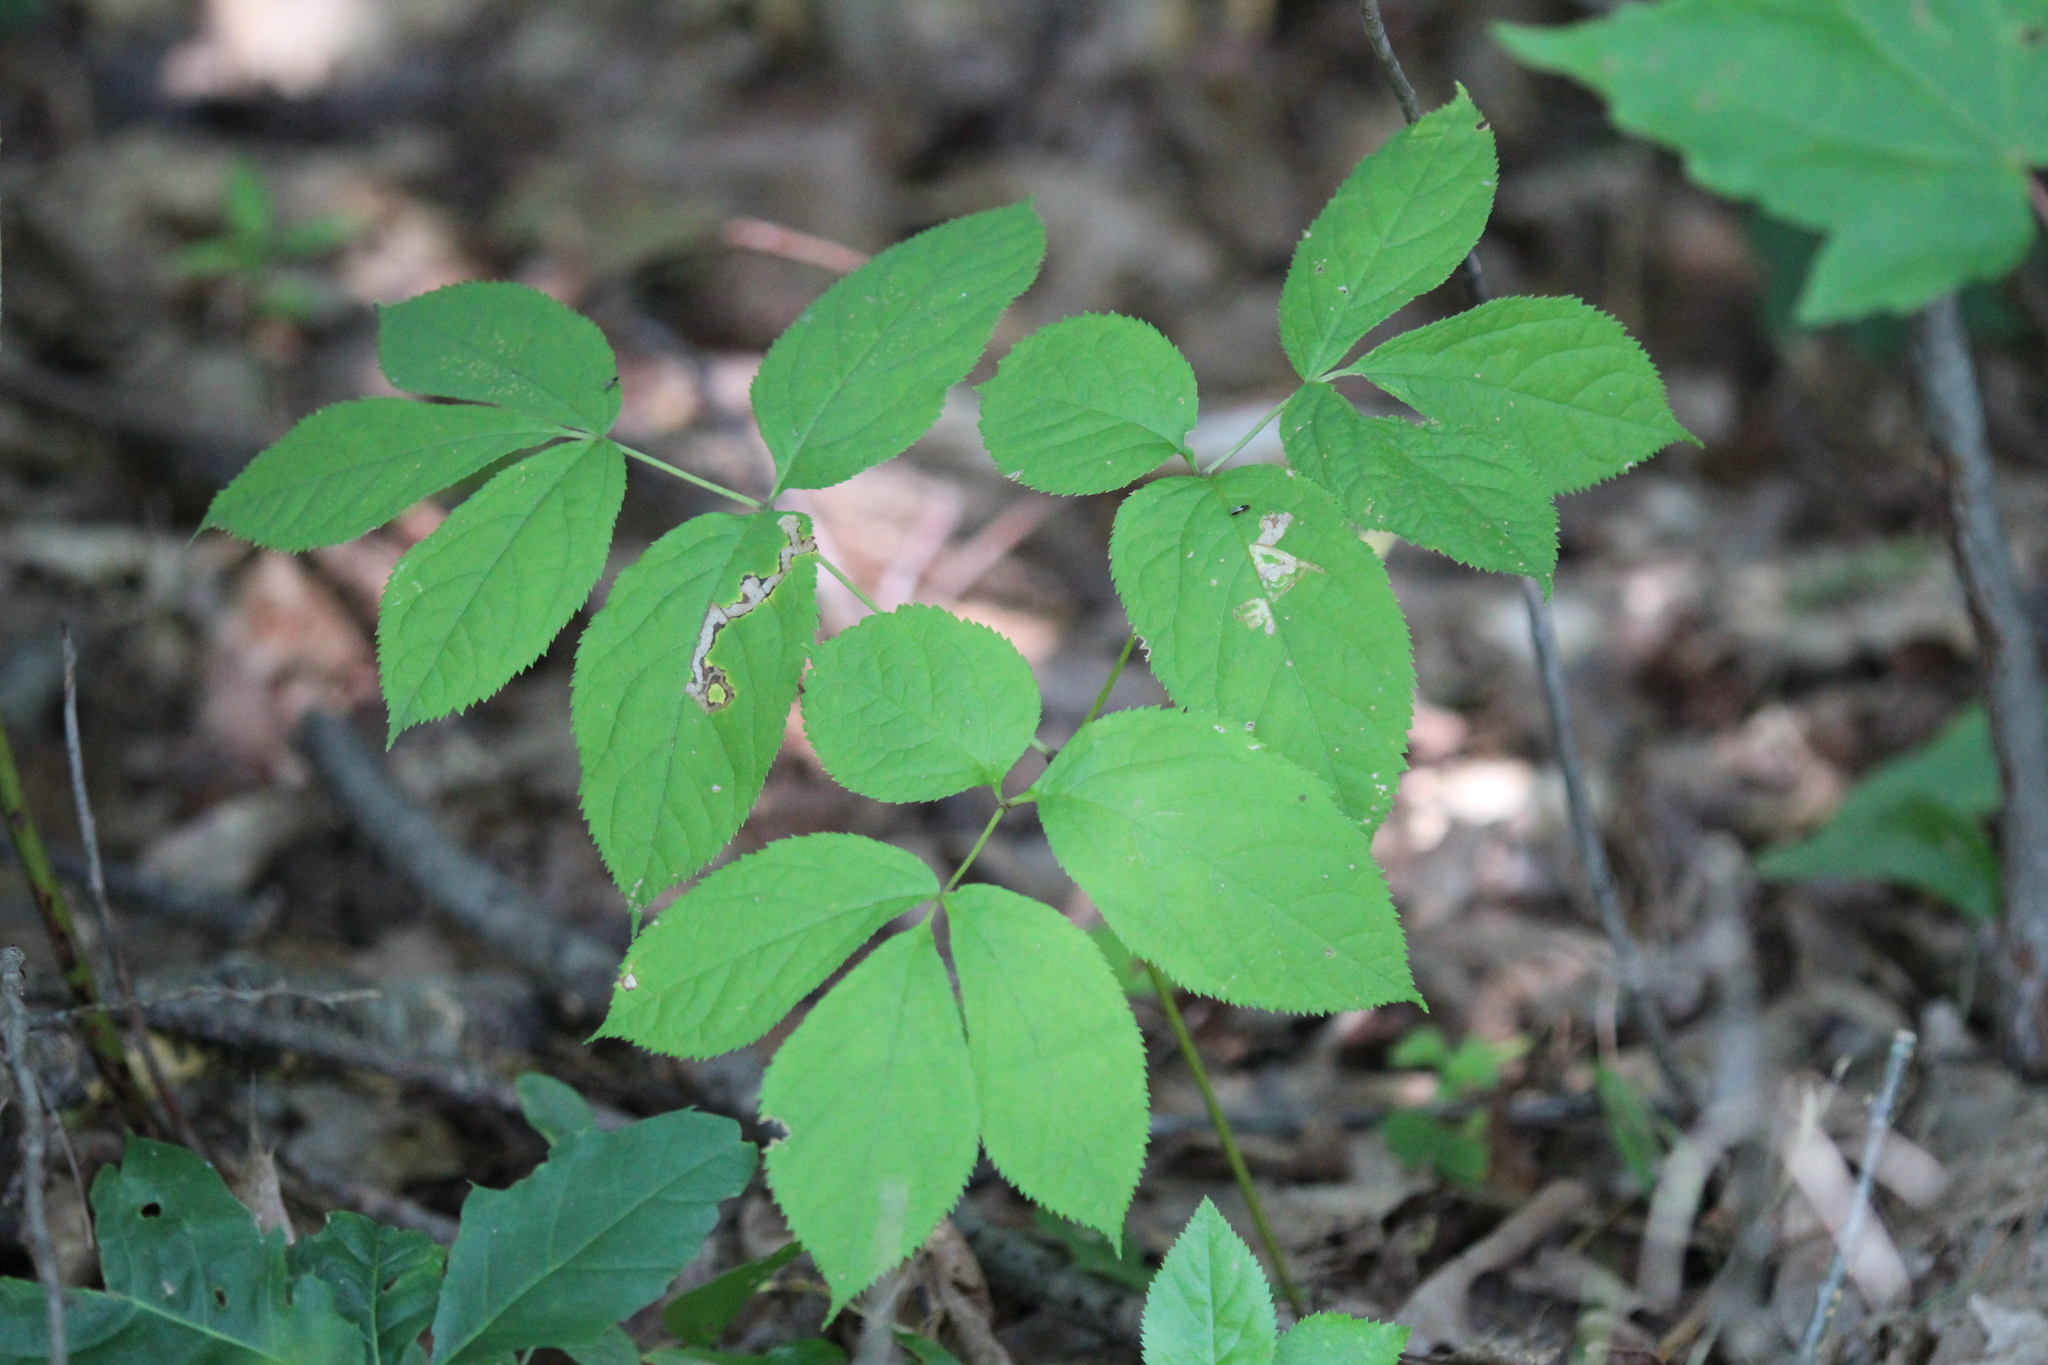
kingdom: Plantae
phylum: Tracheophyta
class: Magnoliopsida
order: Apiales
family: Araliaceae
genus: Aralia
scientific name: Aralia nudicaulis
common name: Wild sarsaparilla
